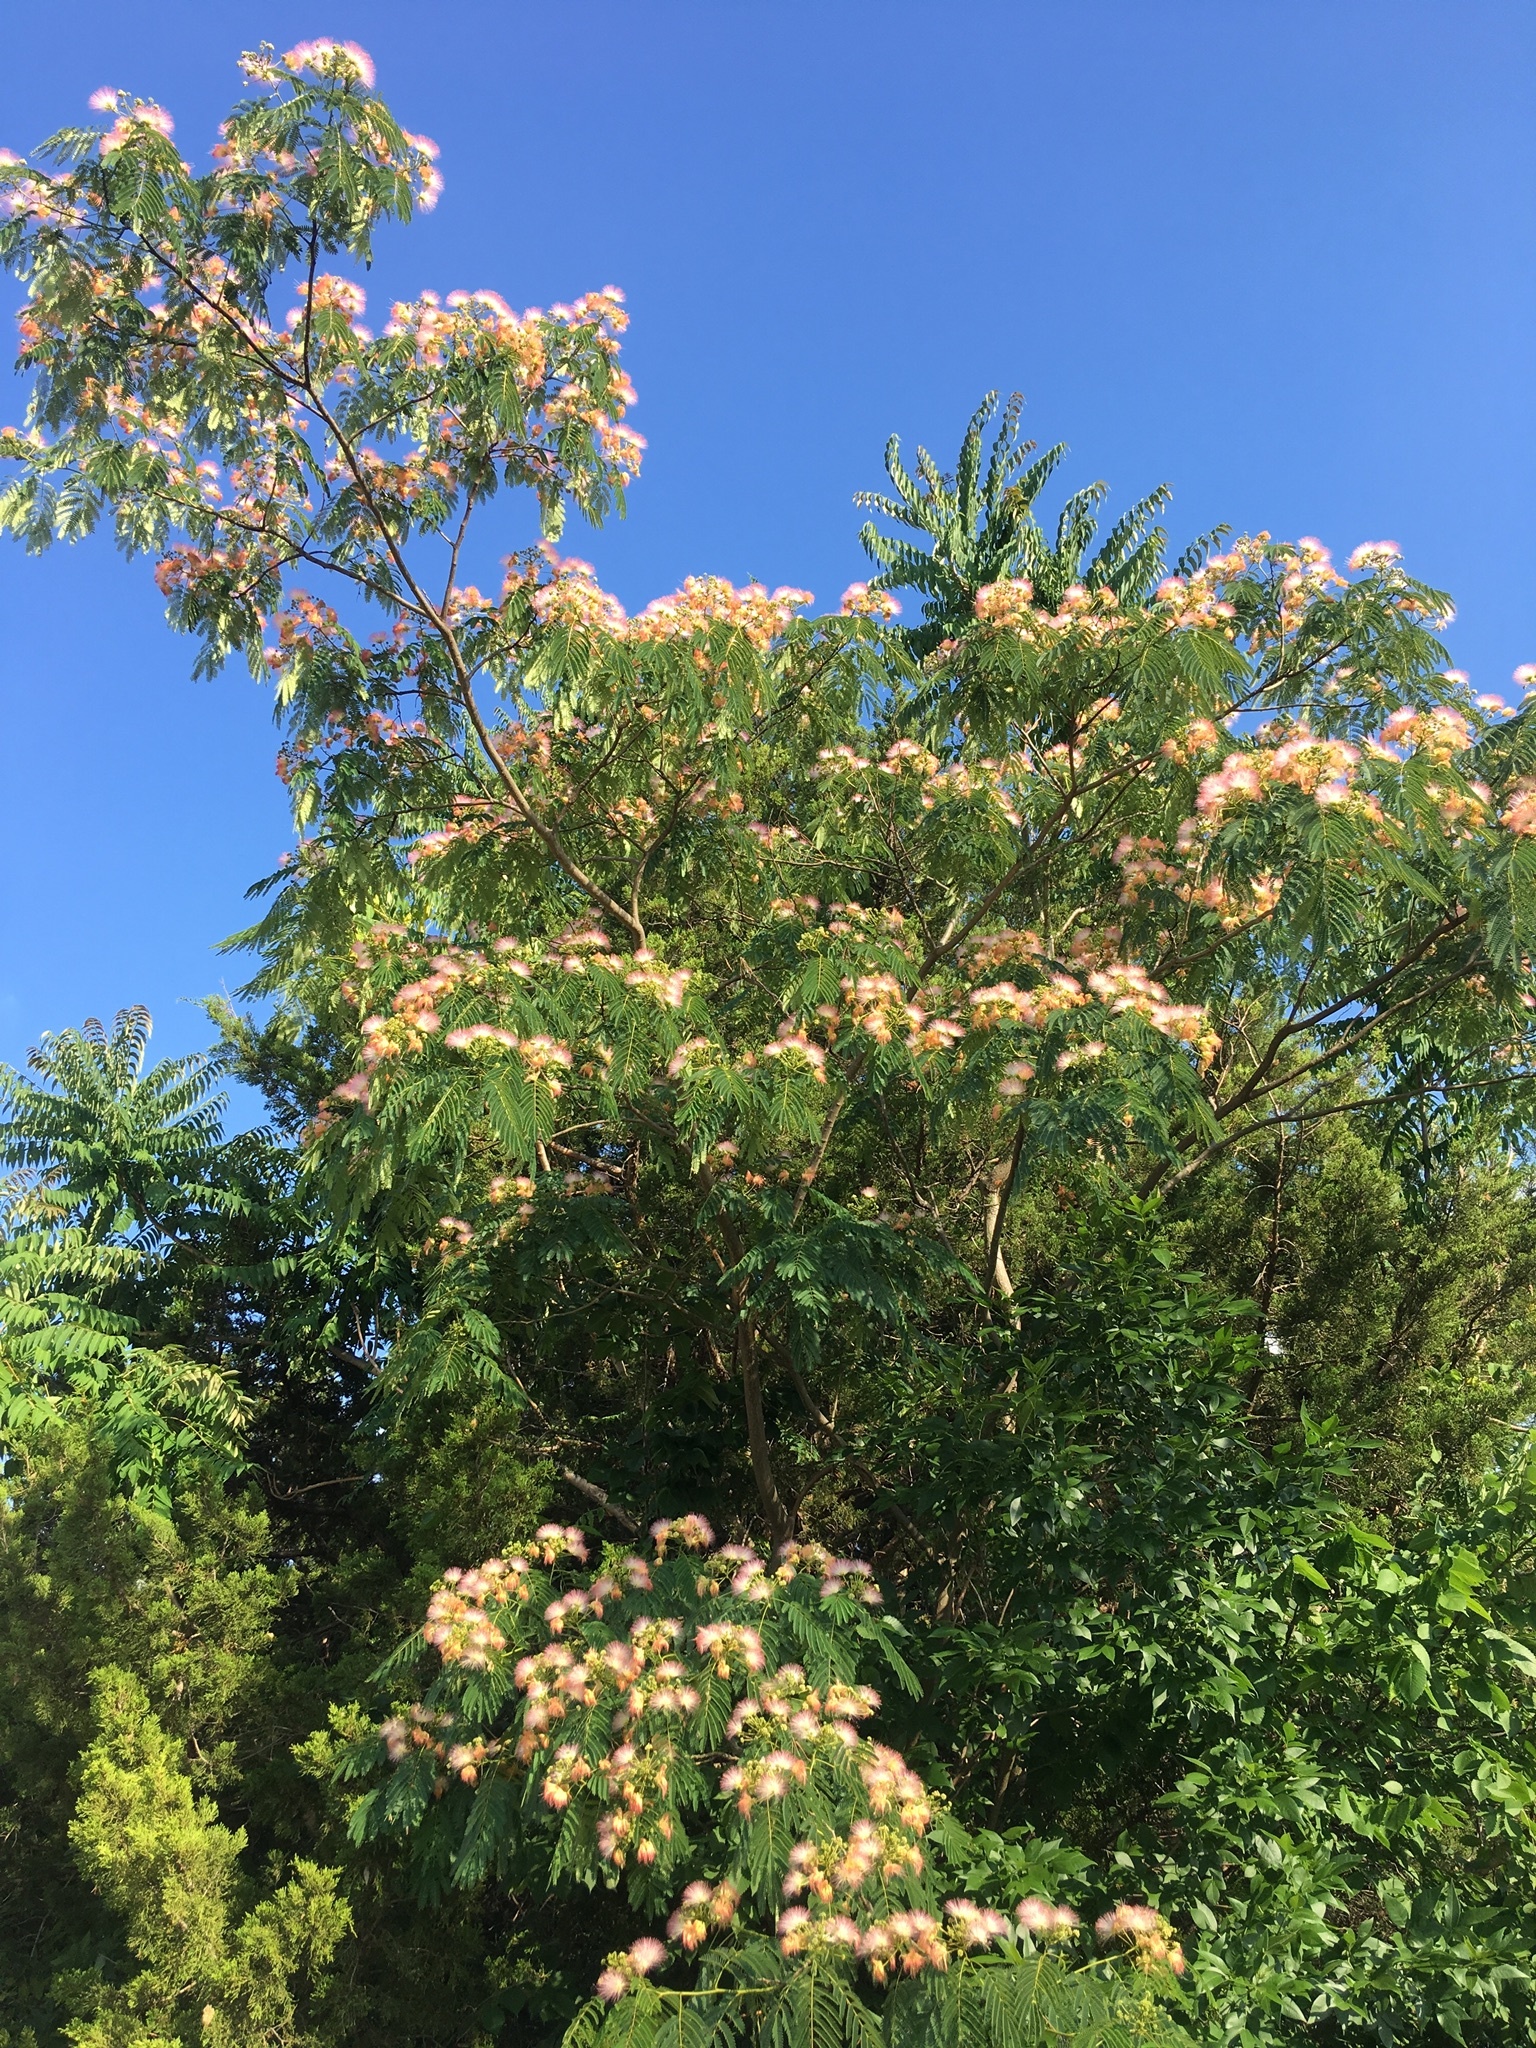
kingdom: Plantae
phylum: Tracheophyta
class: Magnoliopsida
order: Fabales
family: Fabaceae
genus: Albizia
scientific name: Albizia julibrissin
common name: Silktree
